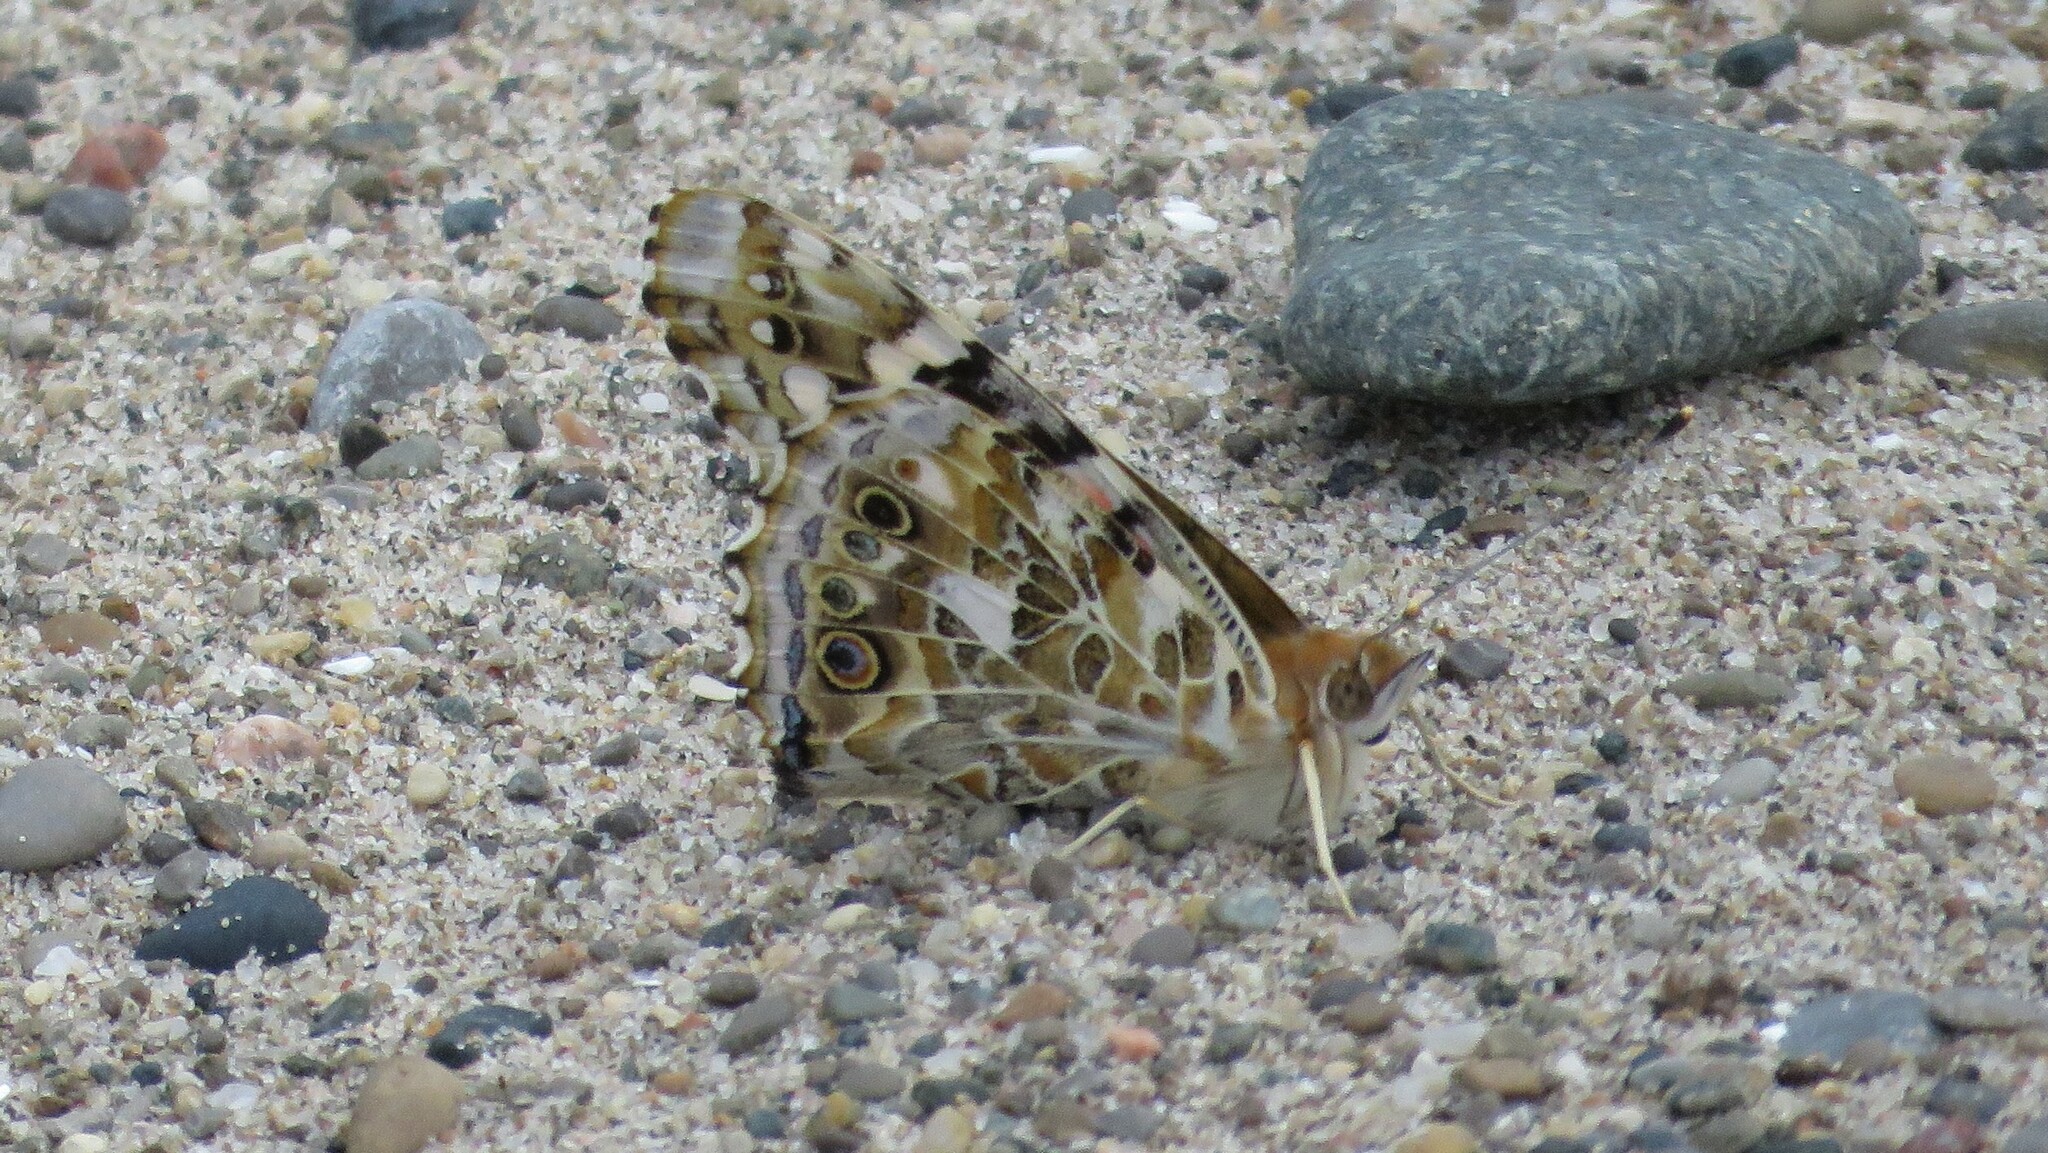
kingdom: Animalia
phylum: Arthropoda
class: Insecta
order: Lepidoptera
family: Nymphalidae
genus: Vanessa
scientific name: Vanessa cardui
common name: Painted lady
